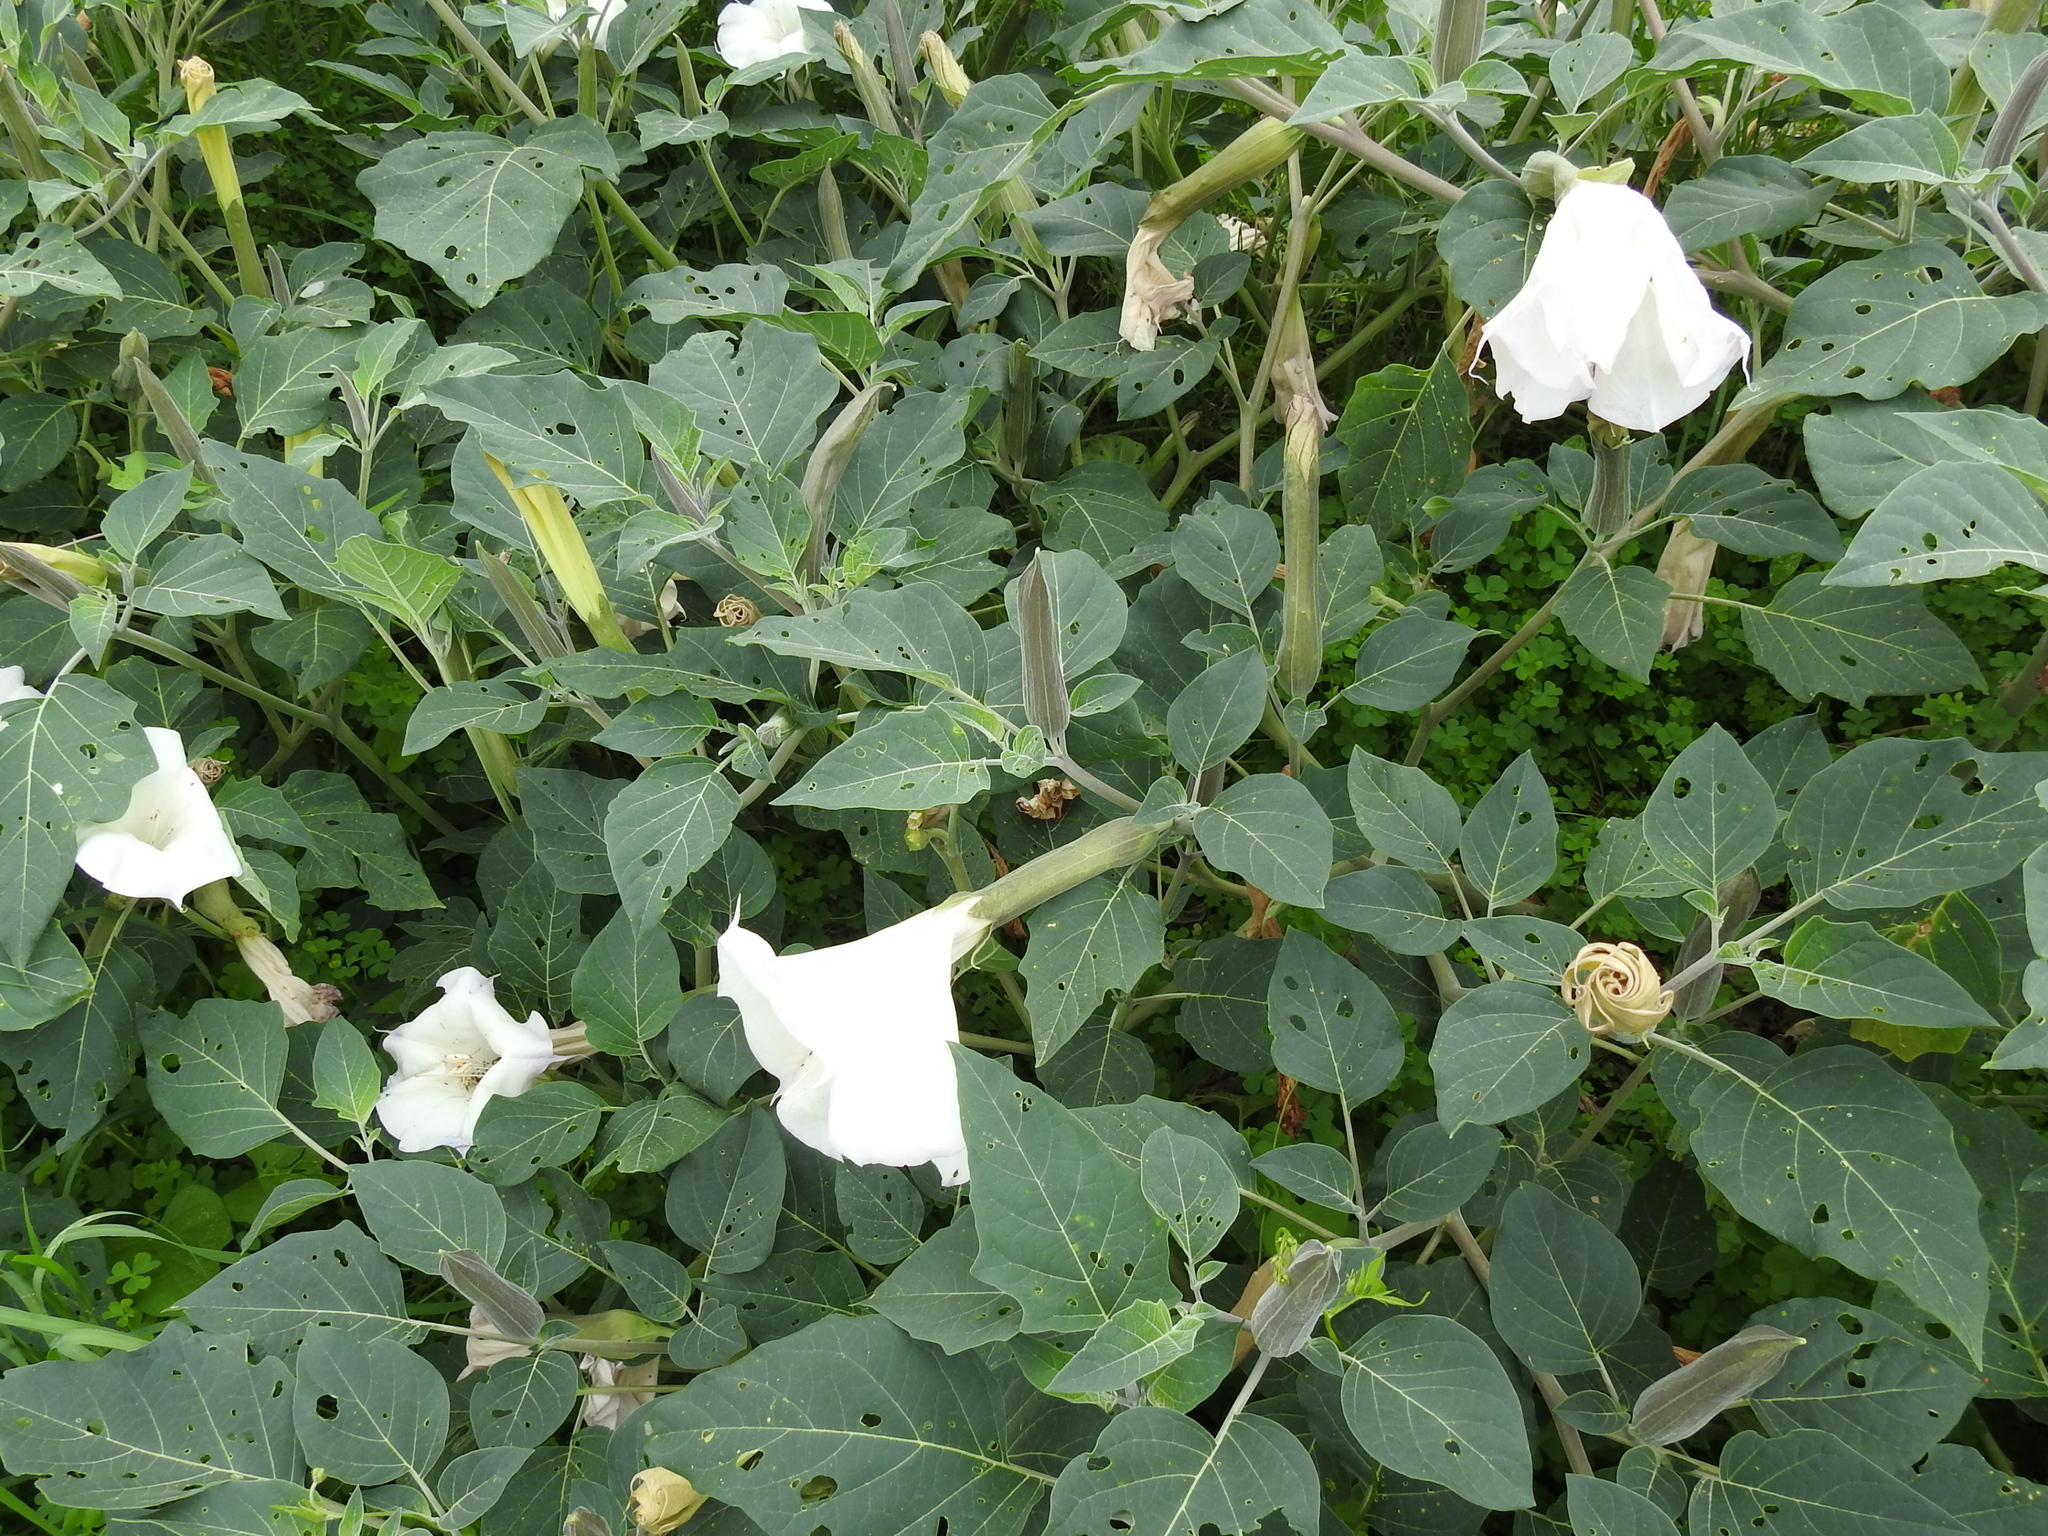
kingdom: Plantae
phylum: Tracheophyta
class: Magnoliopsida
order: Solanales
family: Solanaceae
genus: Datura
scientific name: Datura wrightii
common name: Sacred thorn-apple
